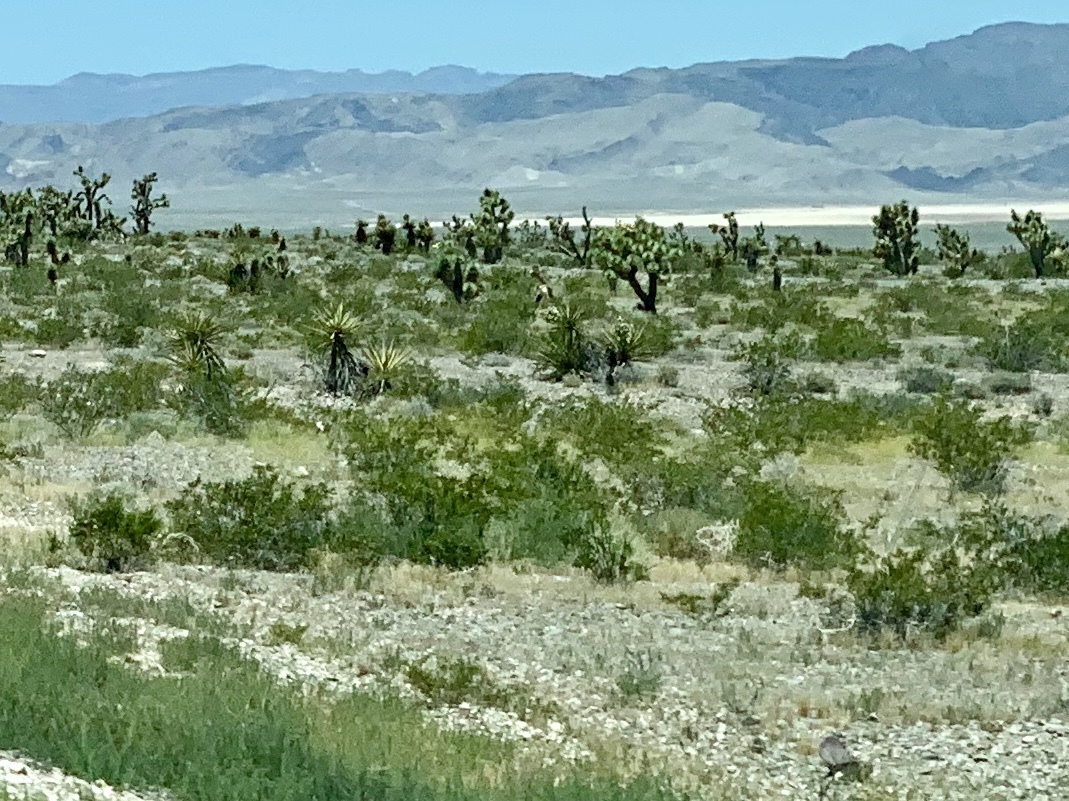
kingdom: Plantae
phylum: Tracheophyta
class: Magnoliopsida
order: Zygophyllales
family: Zygophyllaceae
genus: Larrea
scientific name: Larrea tridentata
